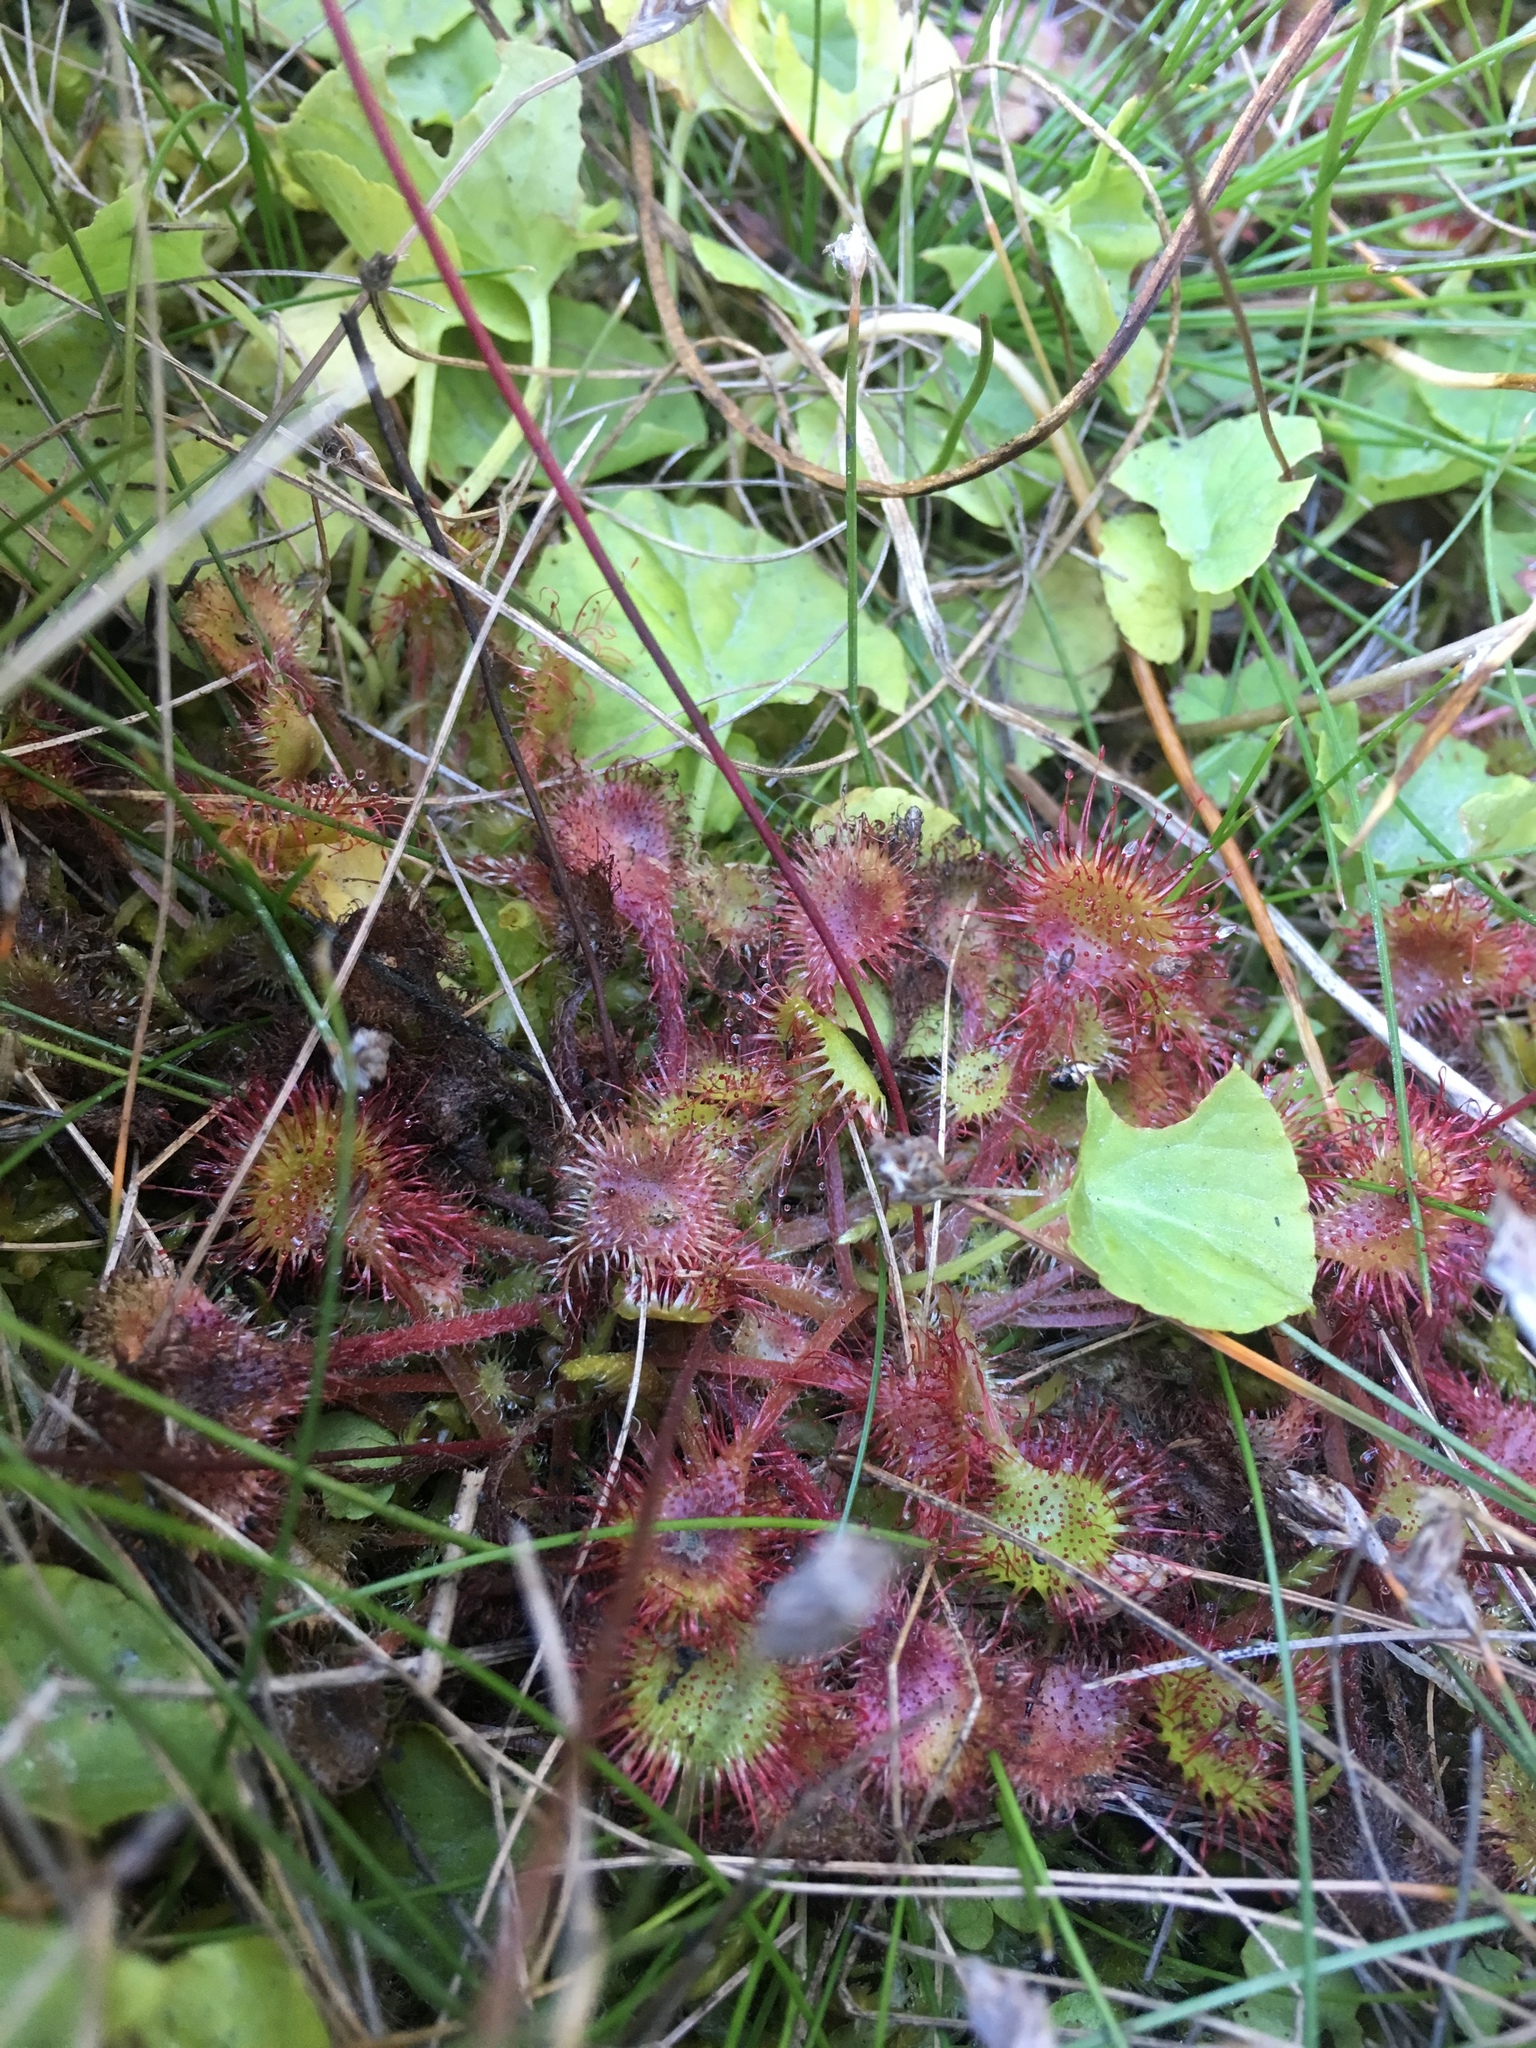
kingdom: Plantae
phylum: Tracheophyta
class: Magnoliopsida
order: Caryophyllales
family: Droseraceae
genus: Drosera
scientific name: Drosera rotundifolia
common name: Round-leaved sundew
